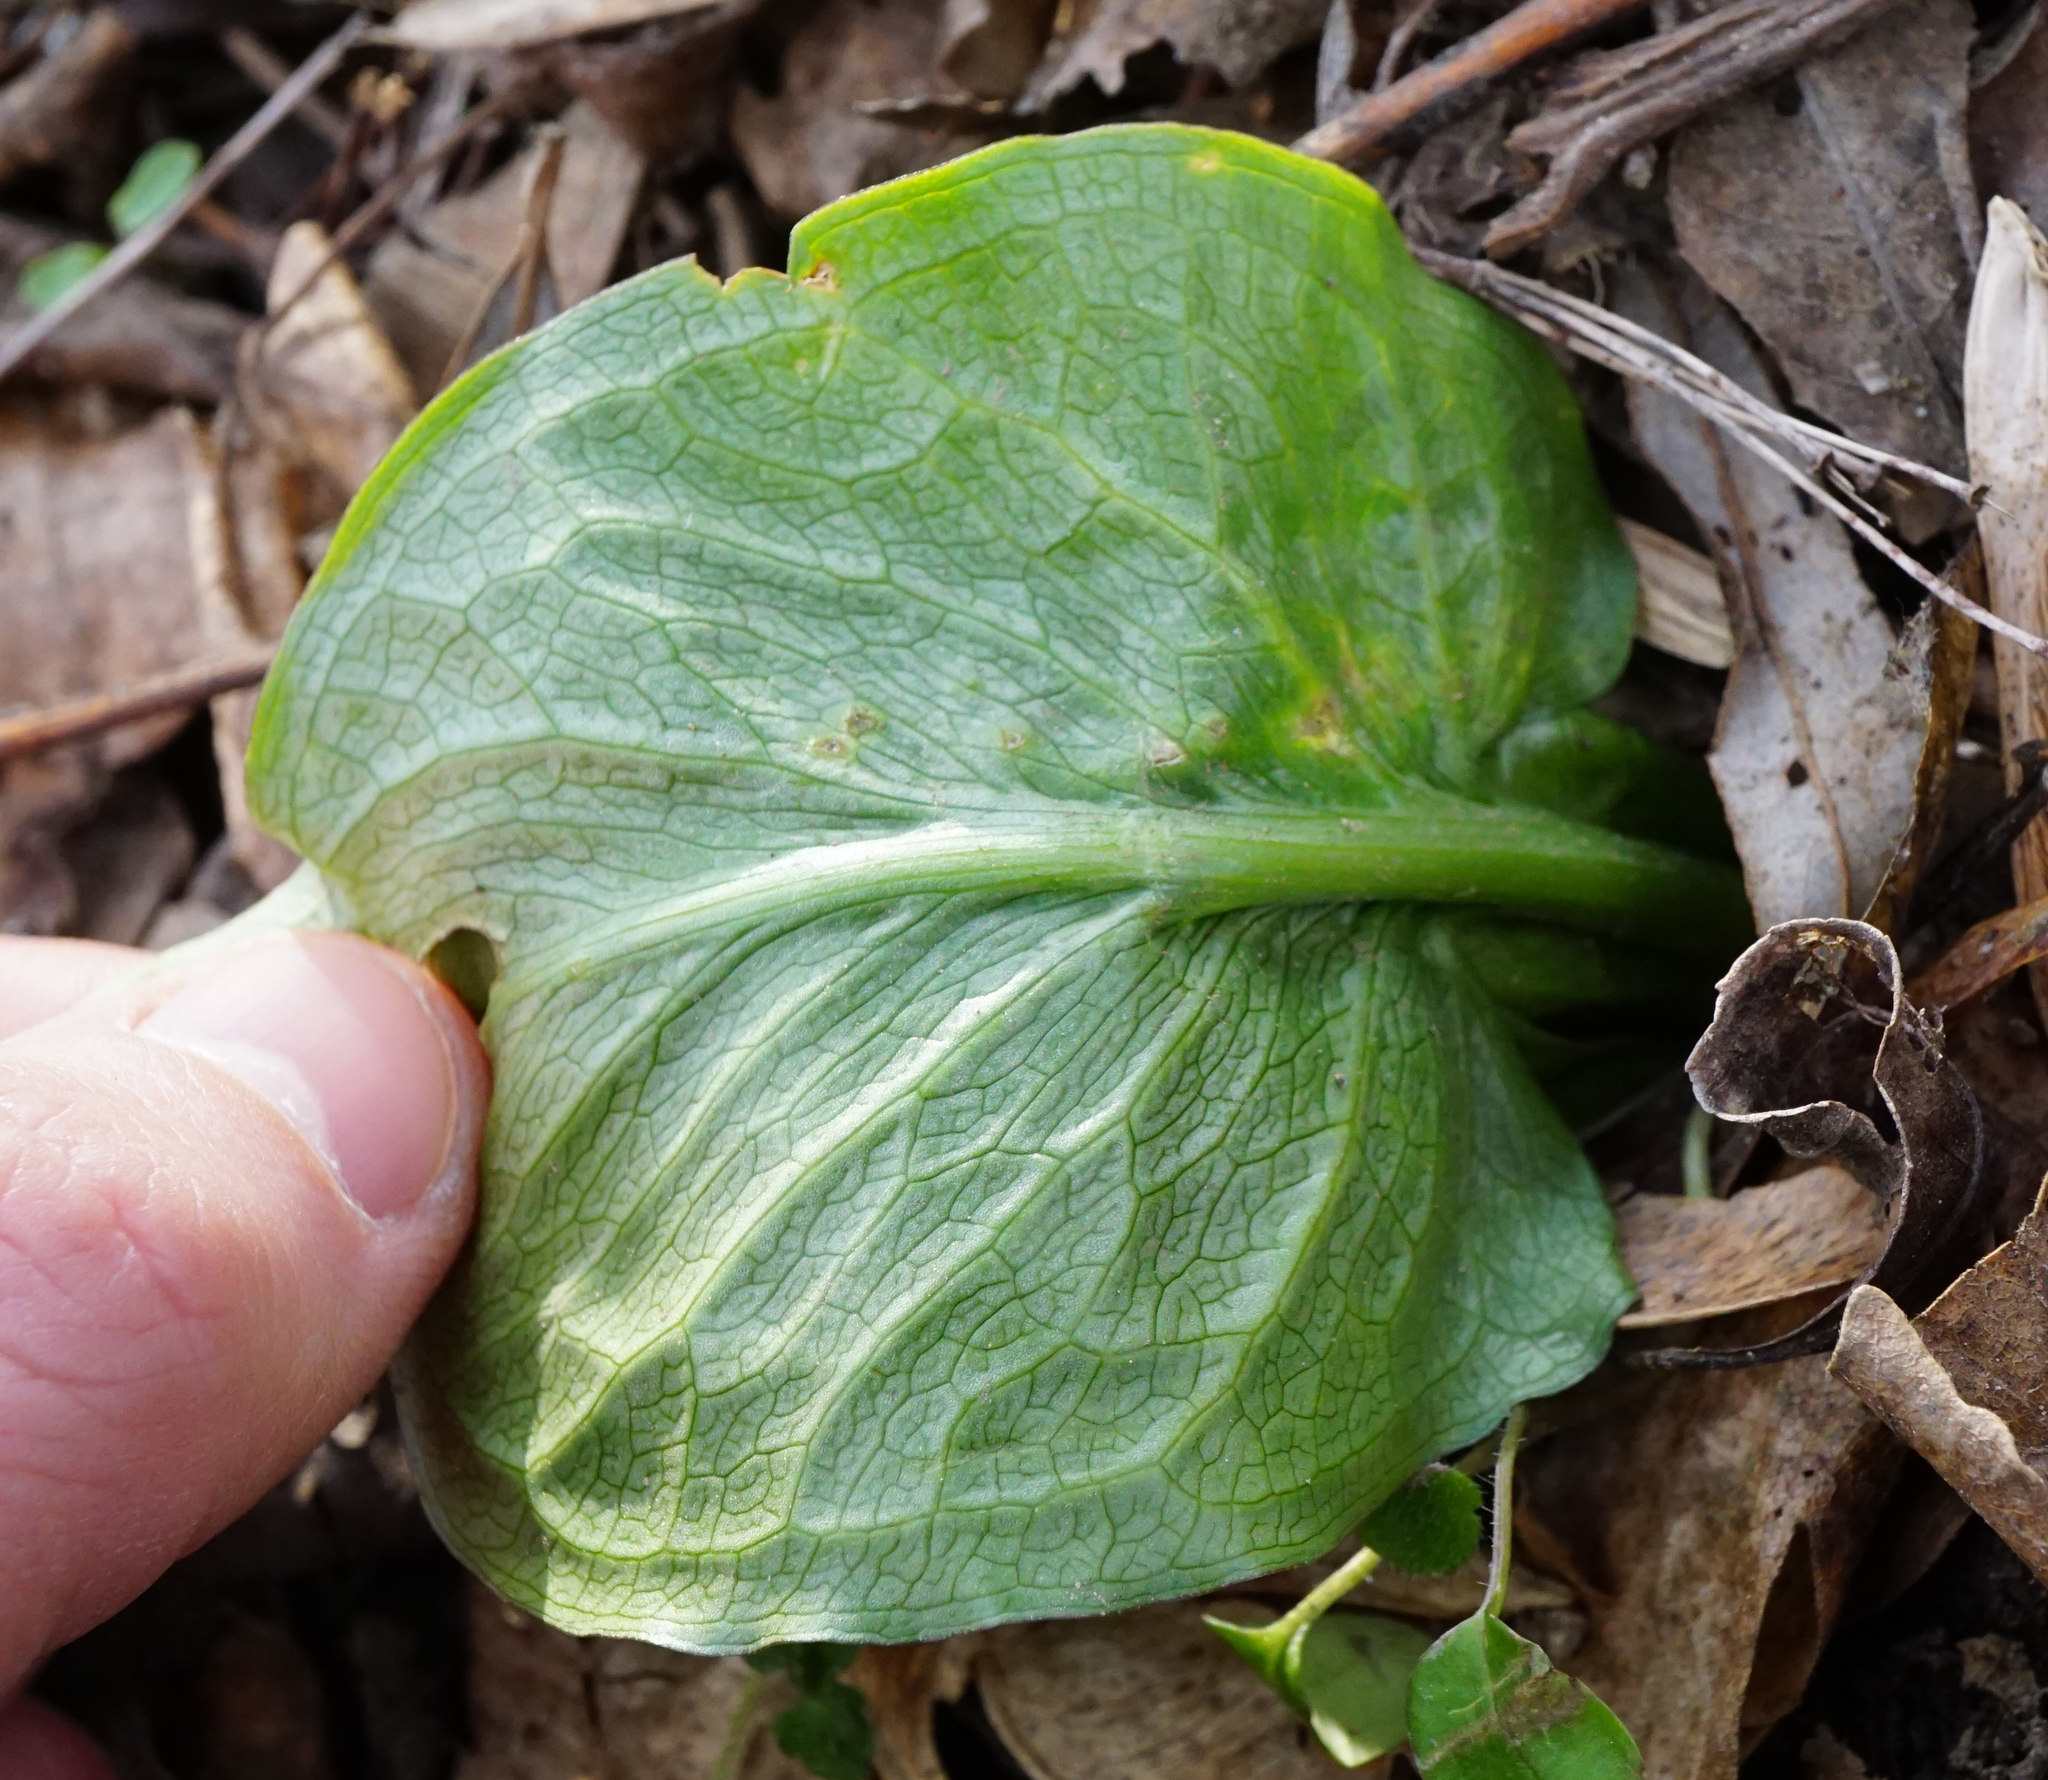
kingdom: Plantae
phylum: Tracheophyta
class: Liliopsida
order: Alismatales
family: Araceae
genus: Arum
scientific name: Arum cylindraceum
